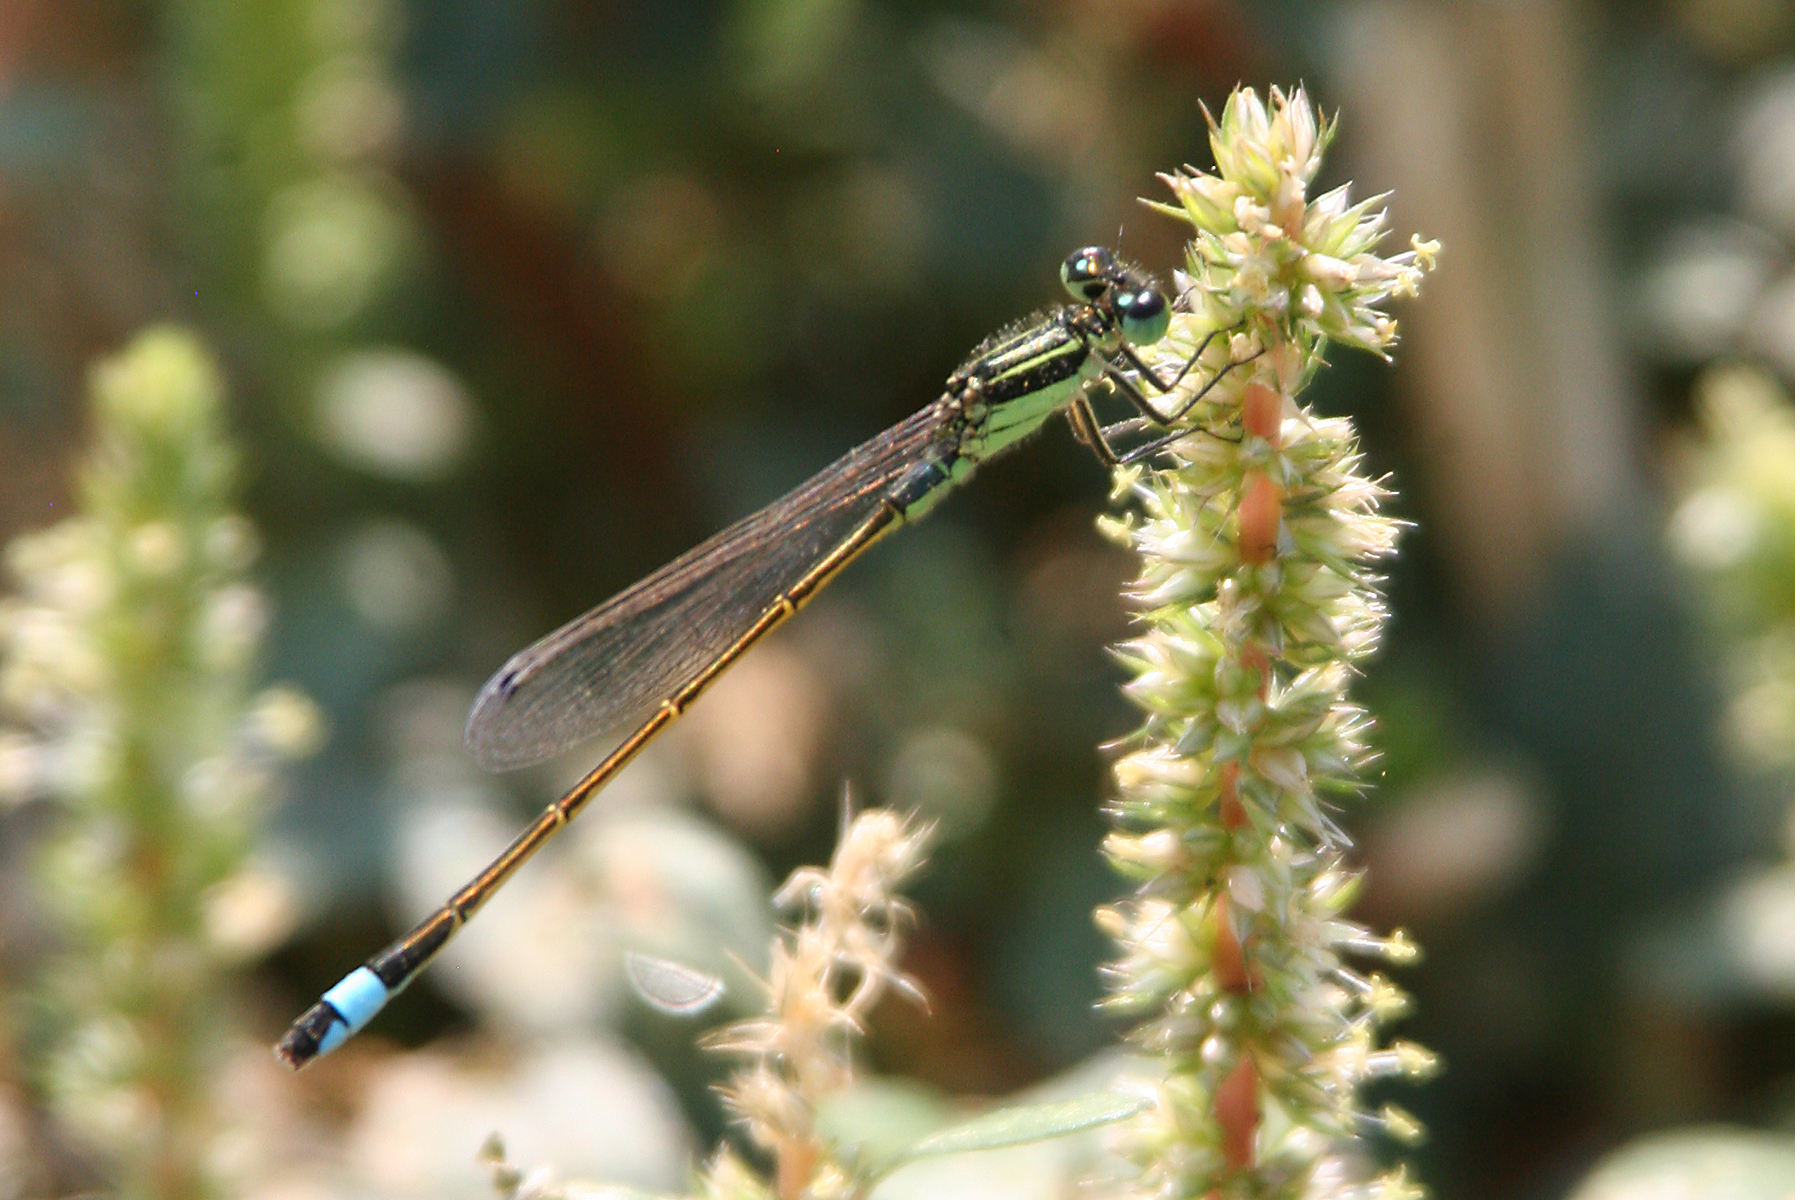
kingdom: Animalia
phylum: Arthropoda
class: Insecta
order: Odonata
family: Coenagrionidae
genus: Ischnura
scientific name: Ischnura ramburii
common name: Rambur's forktail
